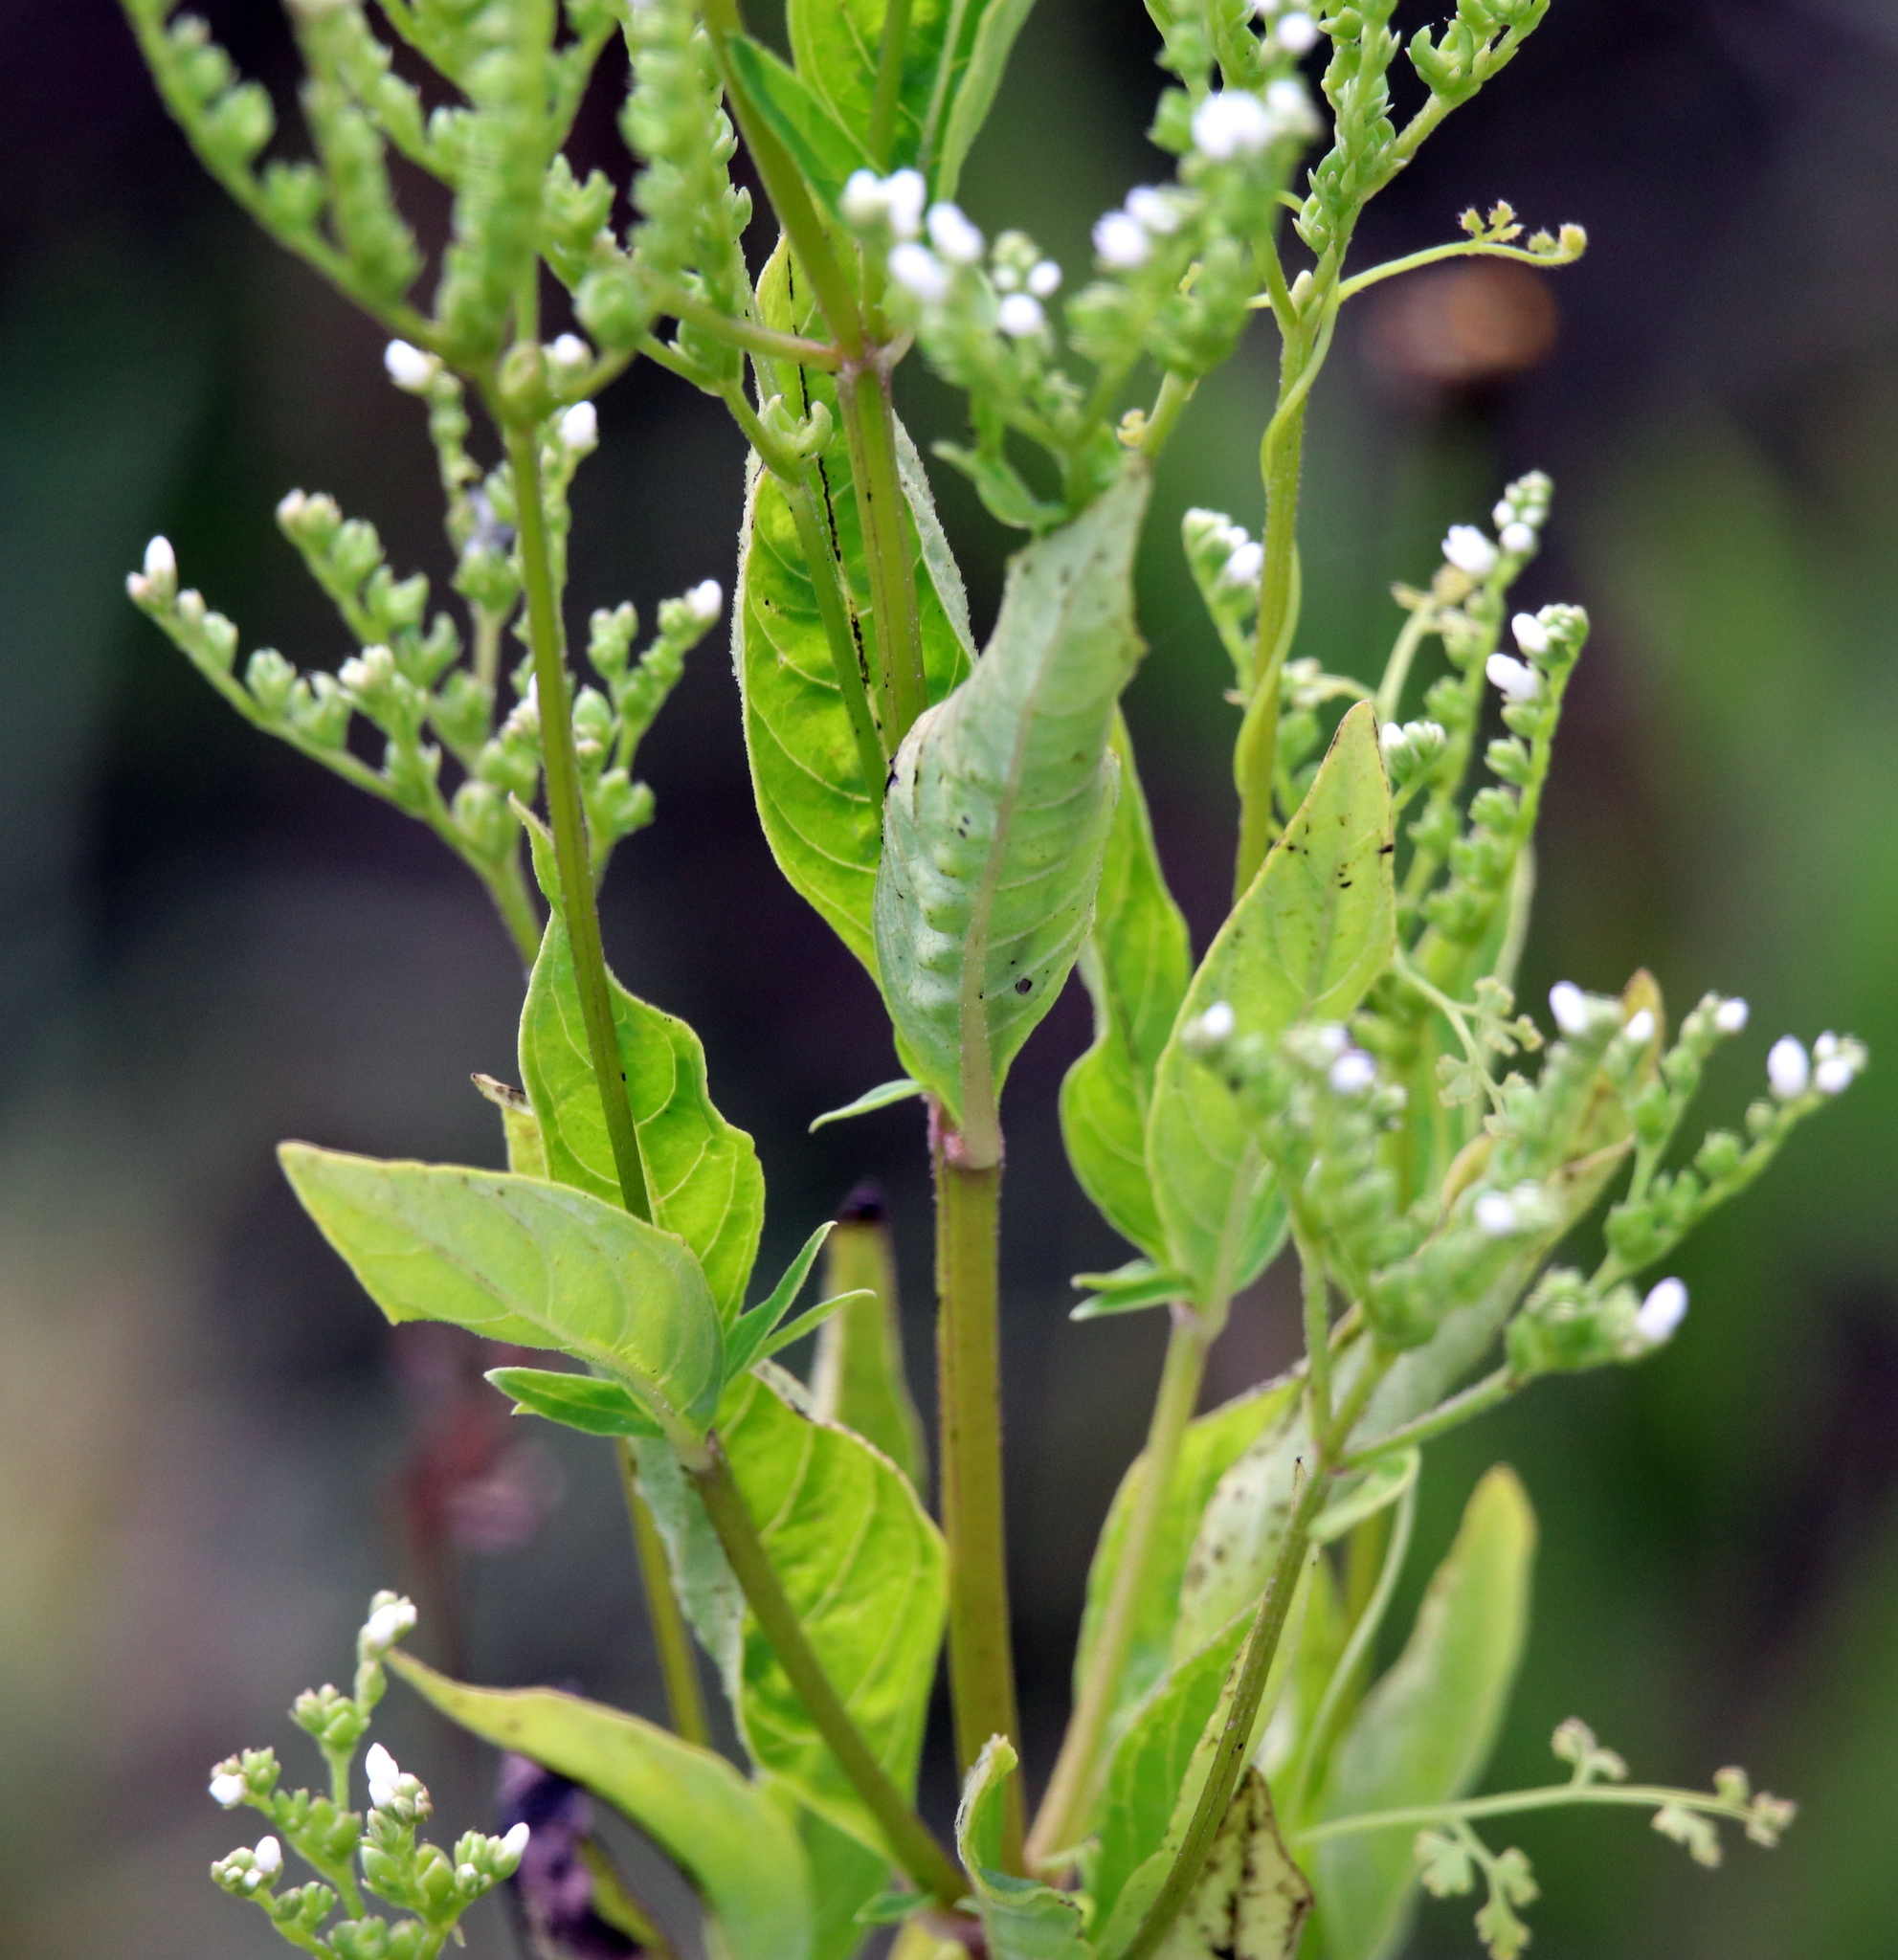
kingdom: Plantae
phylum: Tracheophyta
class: Magnoliopsida
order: Gentianales
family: Loganiaceae
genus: Mitreola
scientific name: Mitreola petiolata
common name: Lax hornpod
